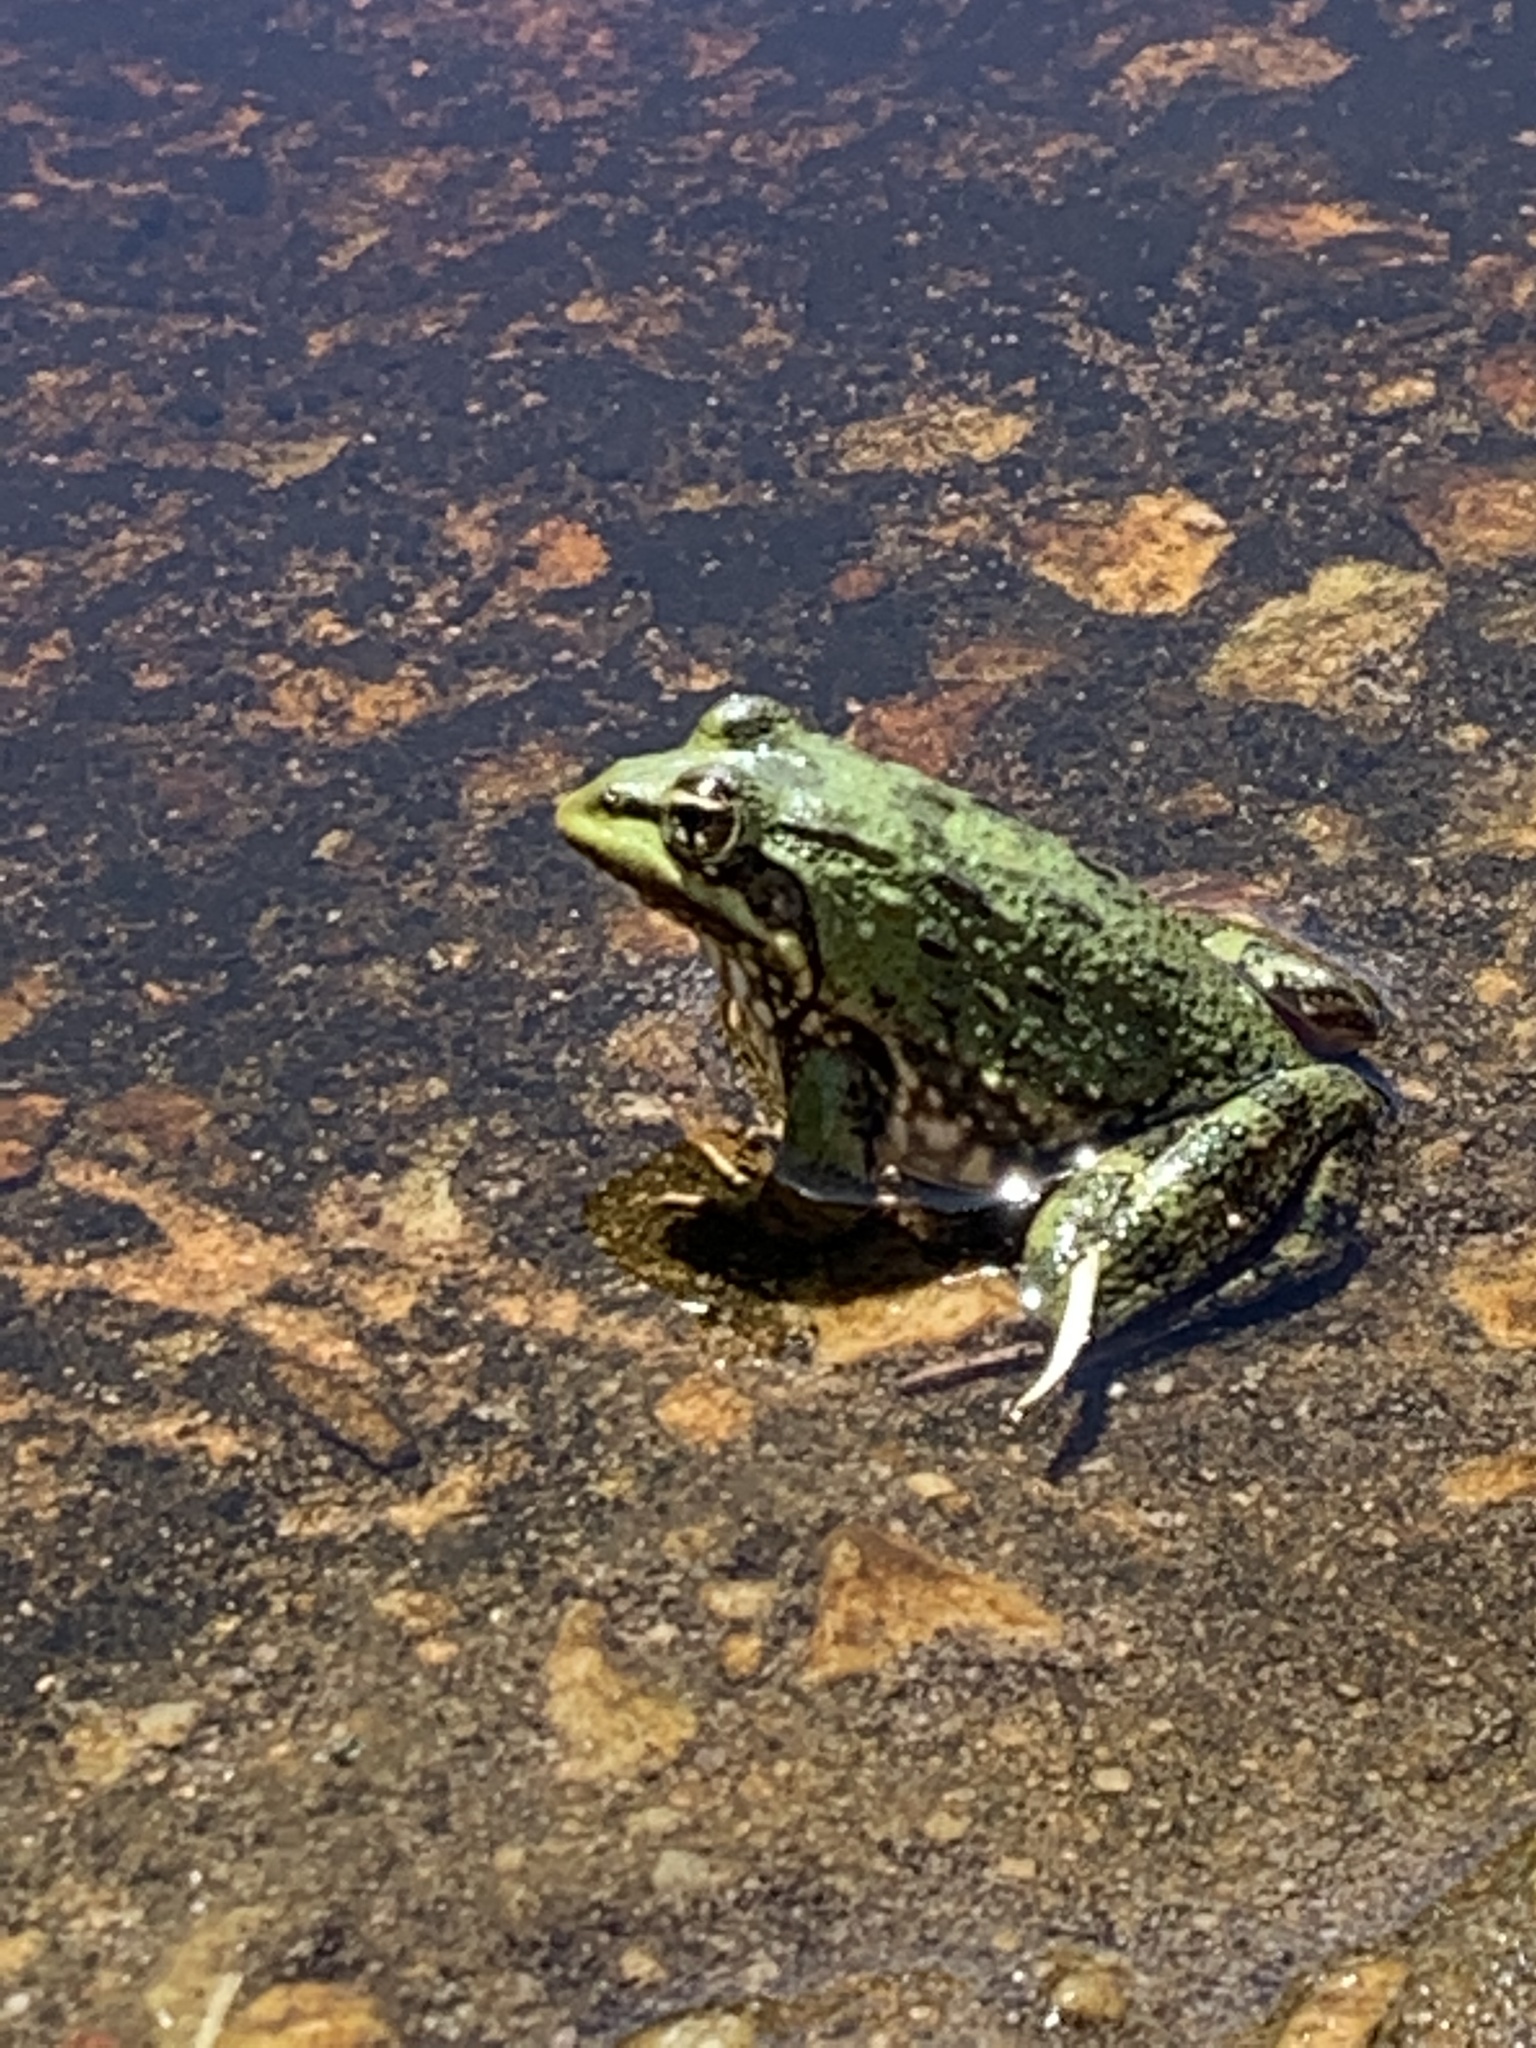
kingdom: Animalia
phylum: Chordata
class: Amphibia
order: Anura
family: Pyxicephalidae
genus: Amietia
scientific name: Amietia fuscigula
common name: Cape rana
